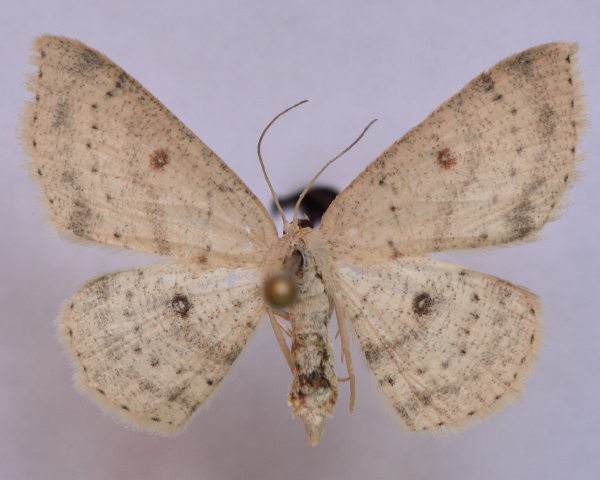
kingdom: Animalia
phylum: Arthropoda
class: Insecta
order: Lepidoptera
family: Geometridae
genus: Cyclophora
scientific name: Cyclophora albipunctata
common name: Birch mocha
